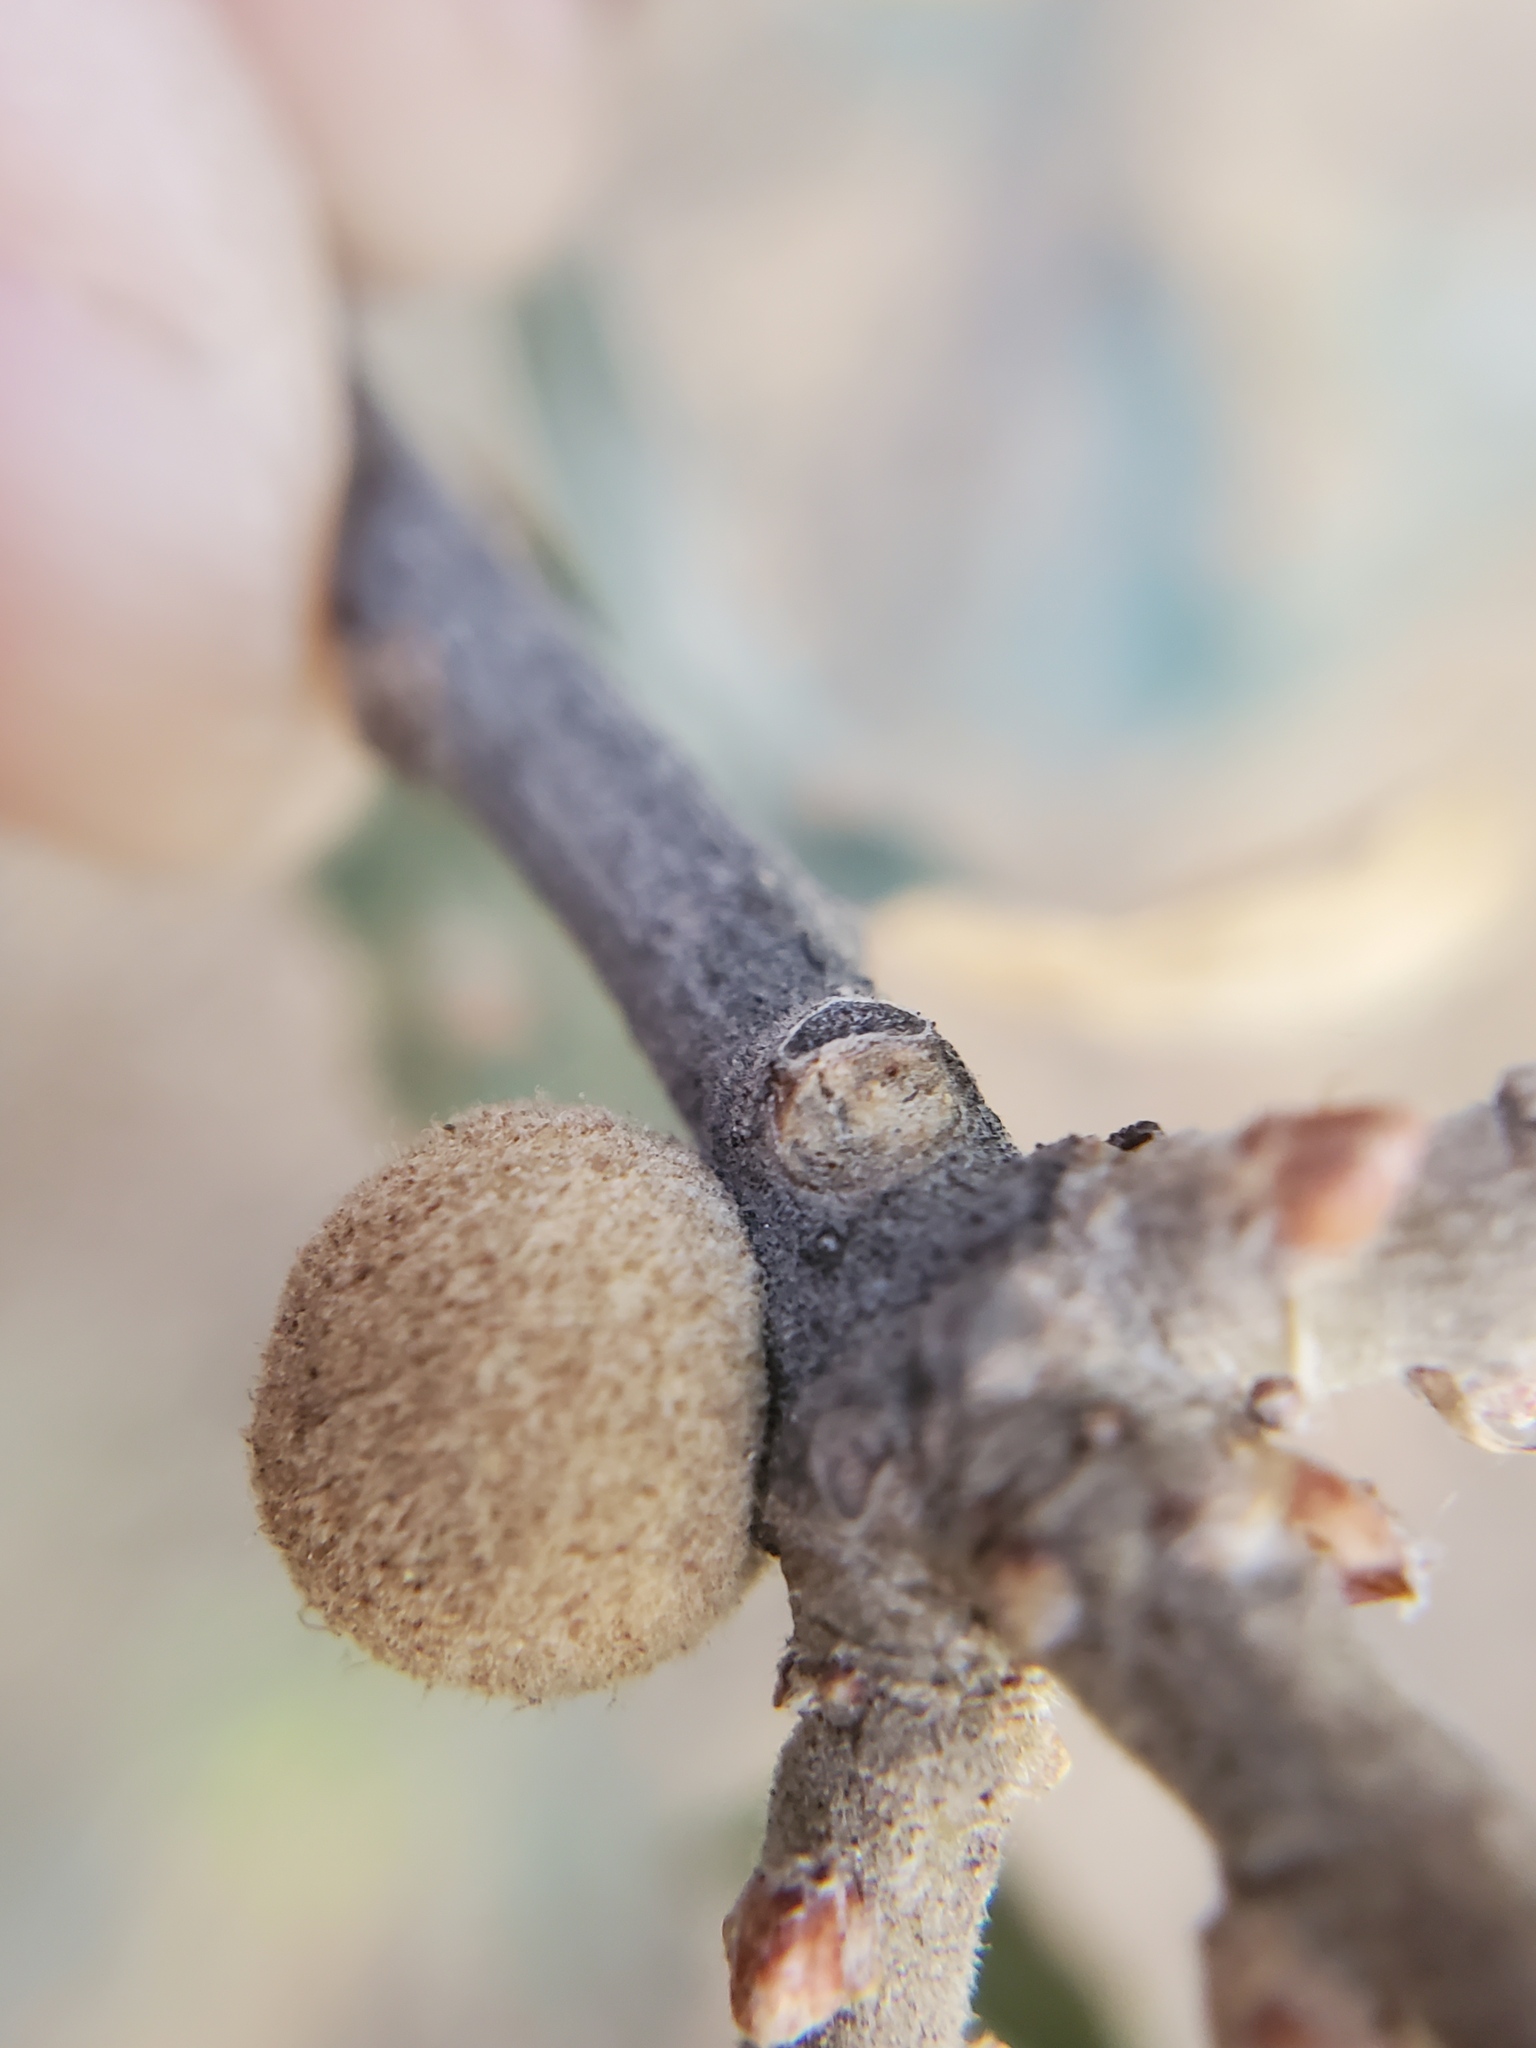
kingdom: Animalia
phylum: Arthropoda
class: Insecta
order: Hymenoptera
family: Cynipidae
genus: Burnettweldia
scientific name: Burnettweldia
